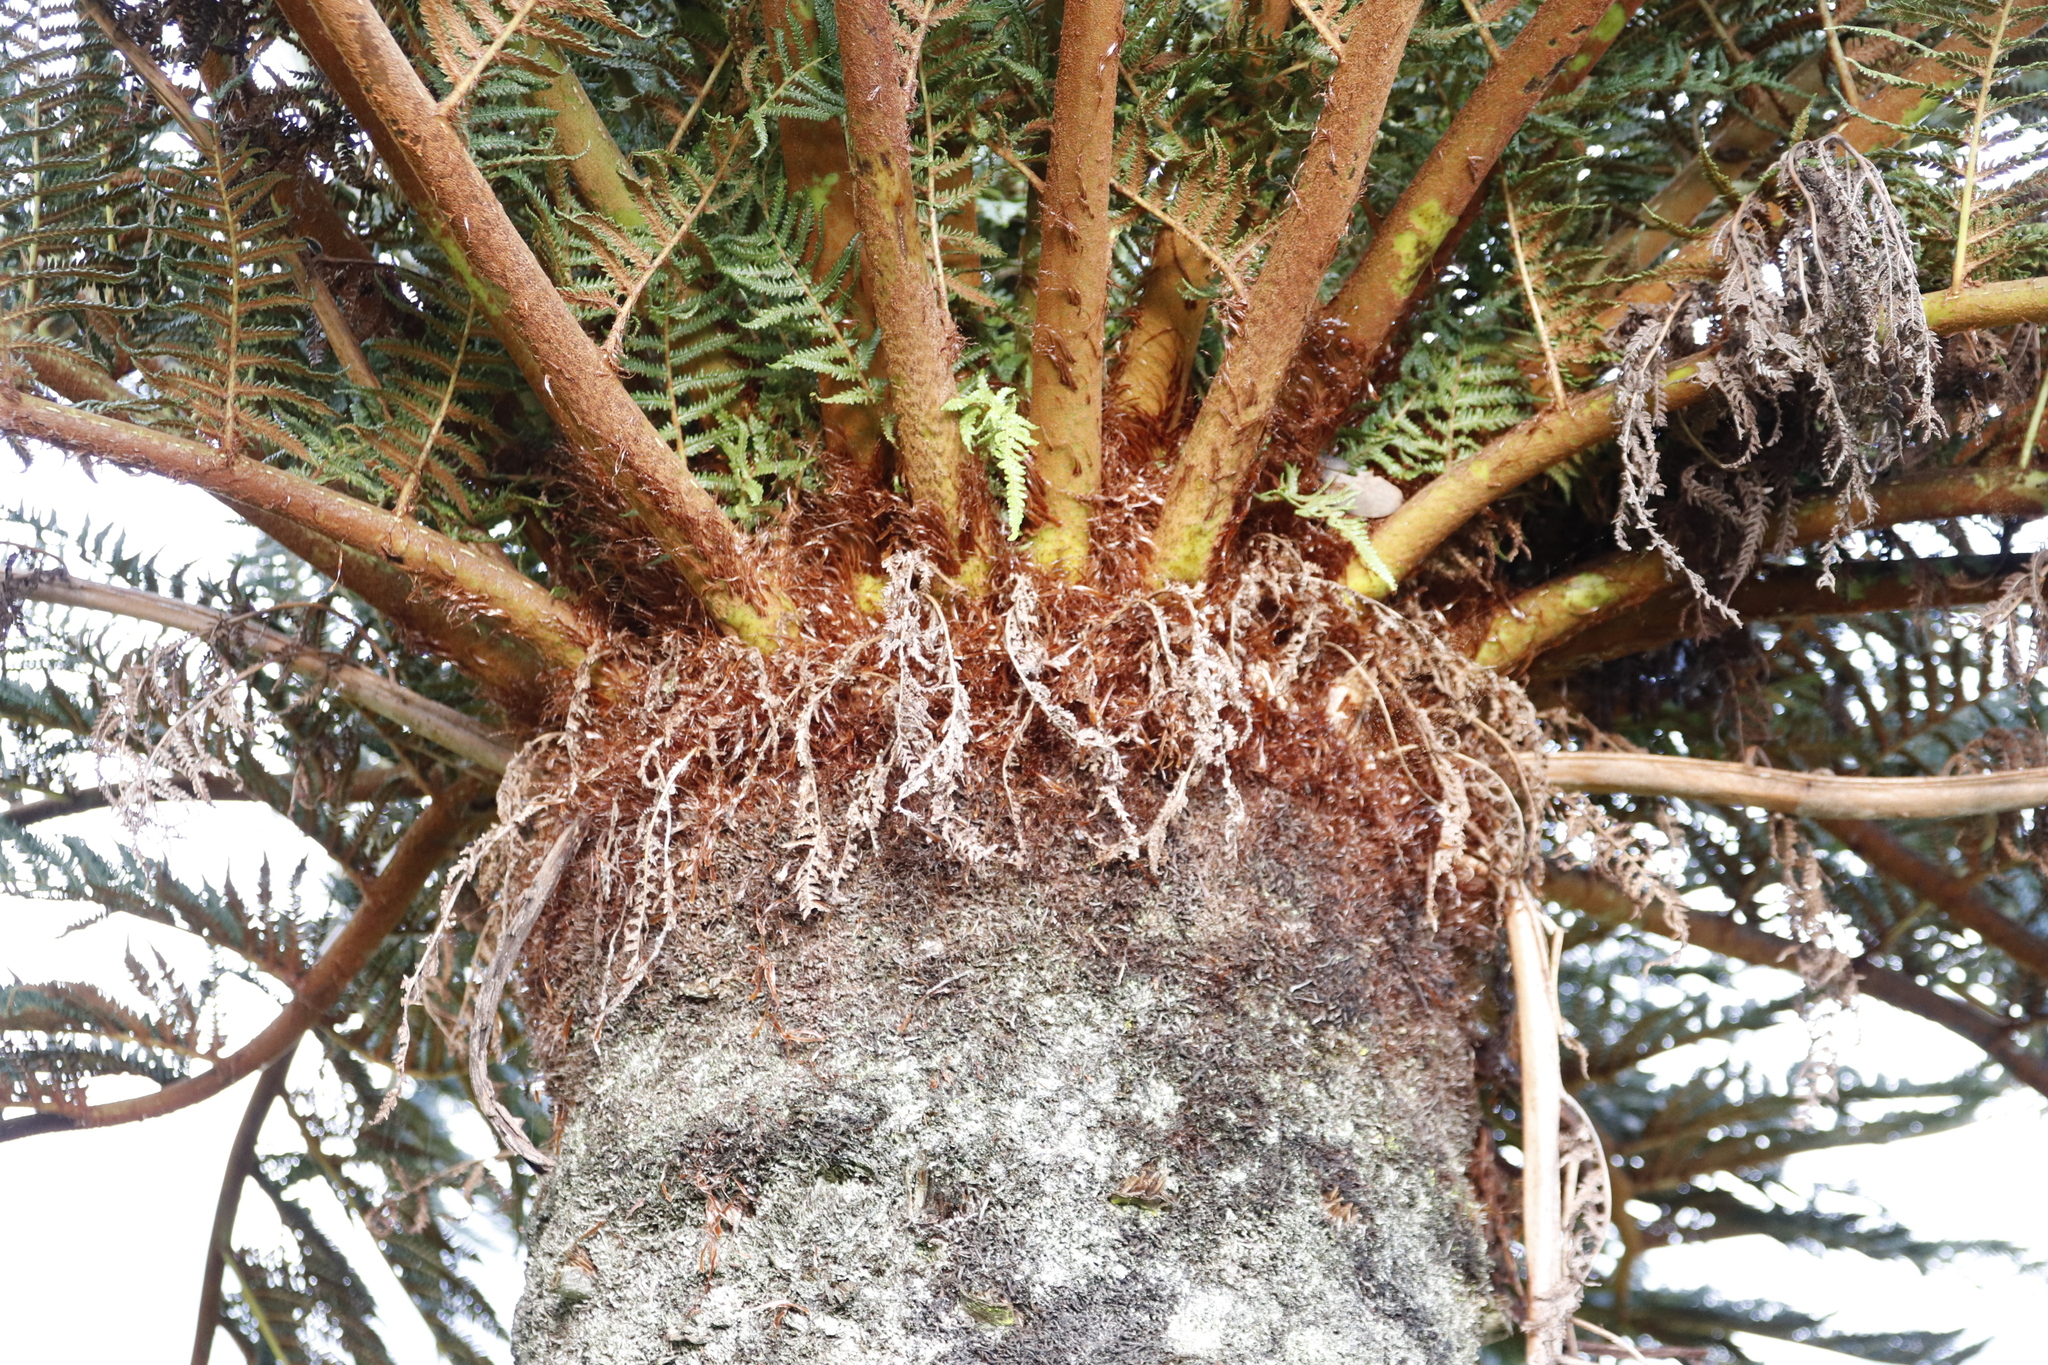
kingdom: Plantae
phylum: Tracheophyta
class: Polypodiopsida
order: Cyatheales
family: Cyatheaceae
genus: Alsophila
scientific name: Alsophila dregei
